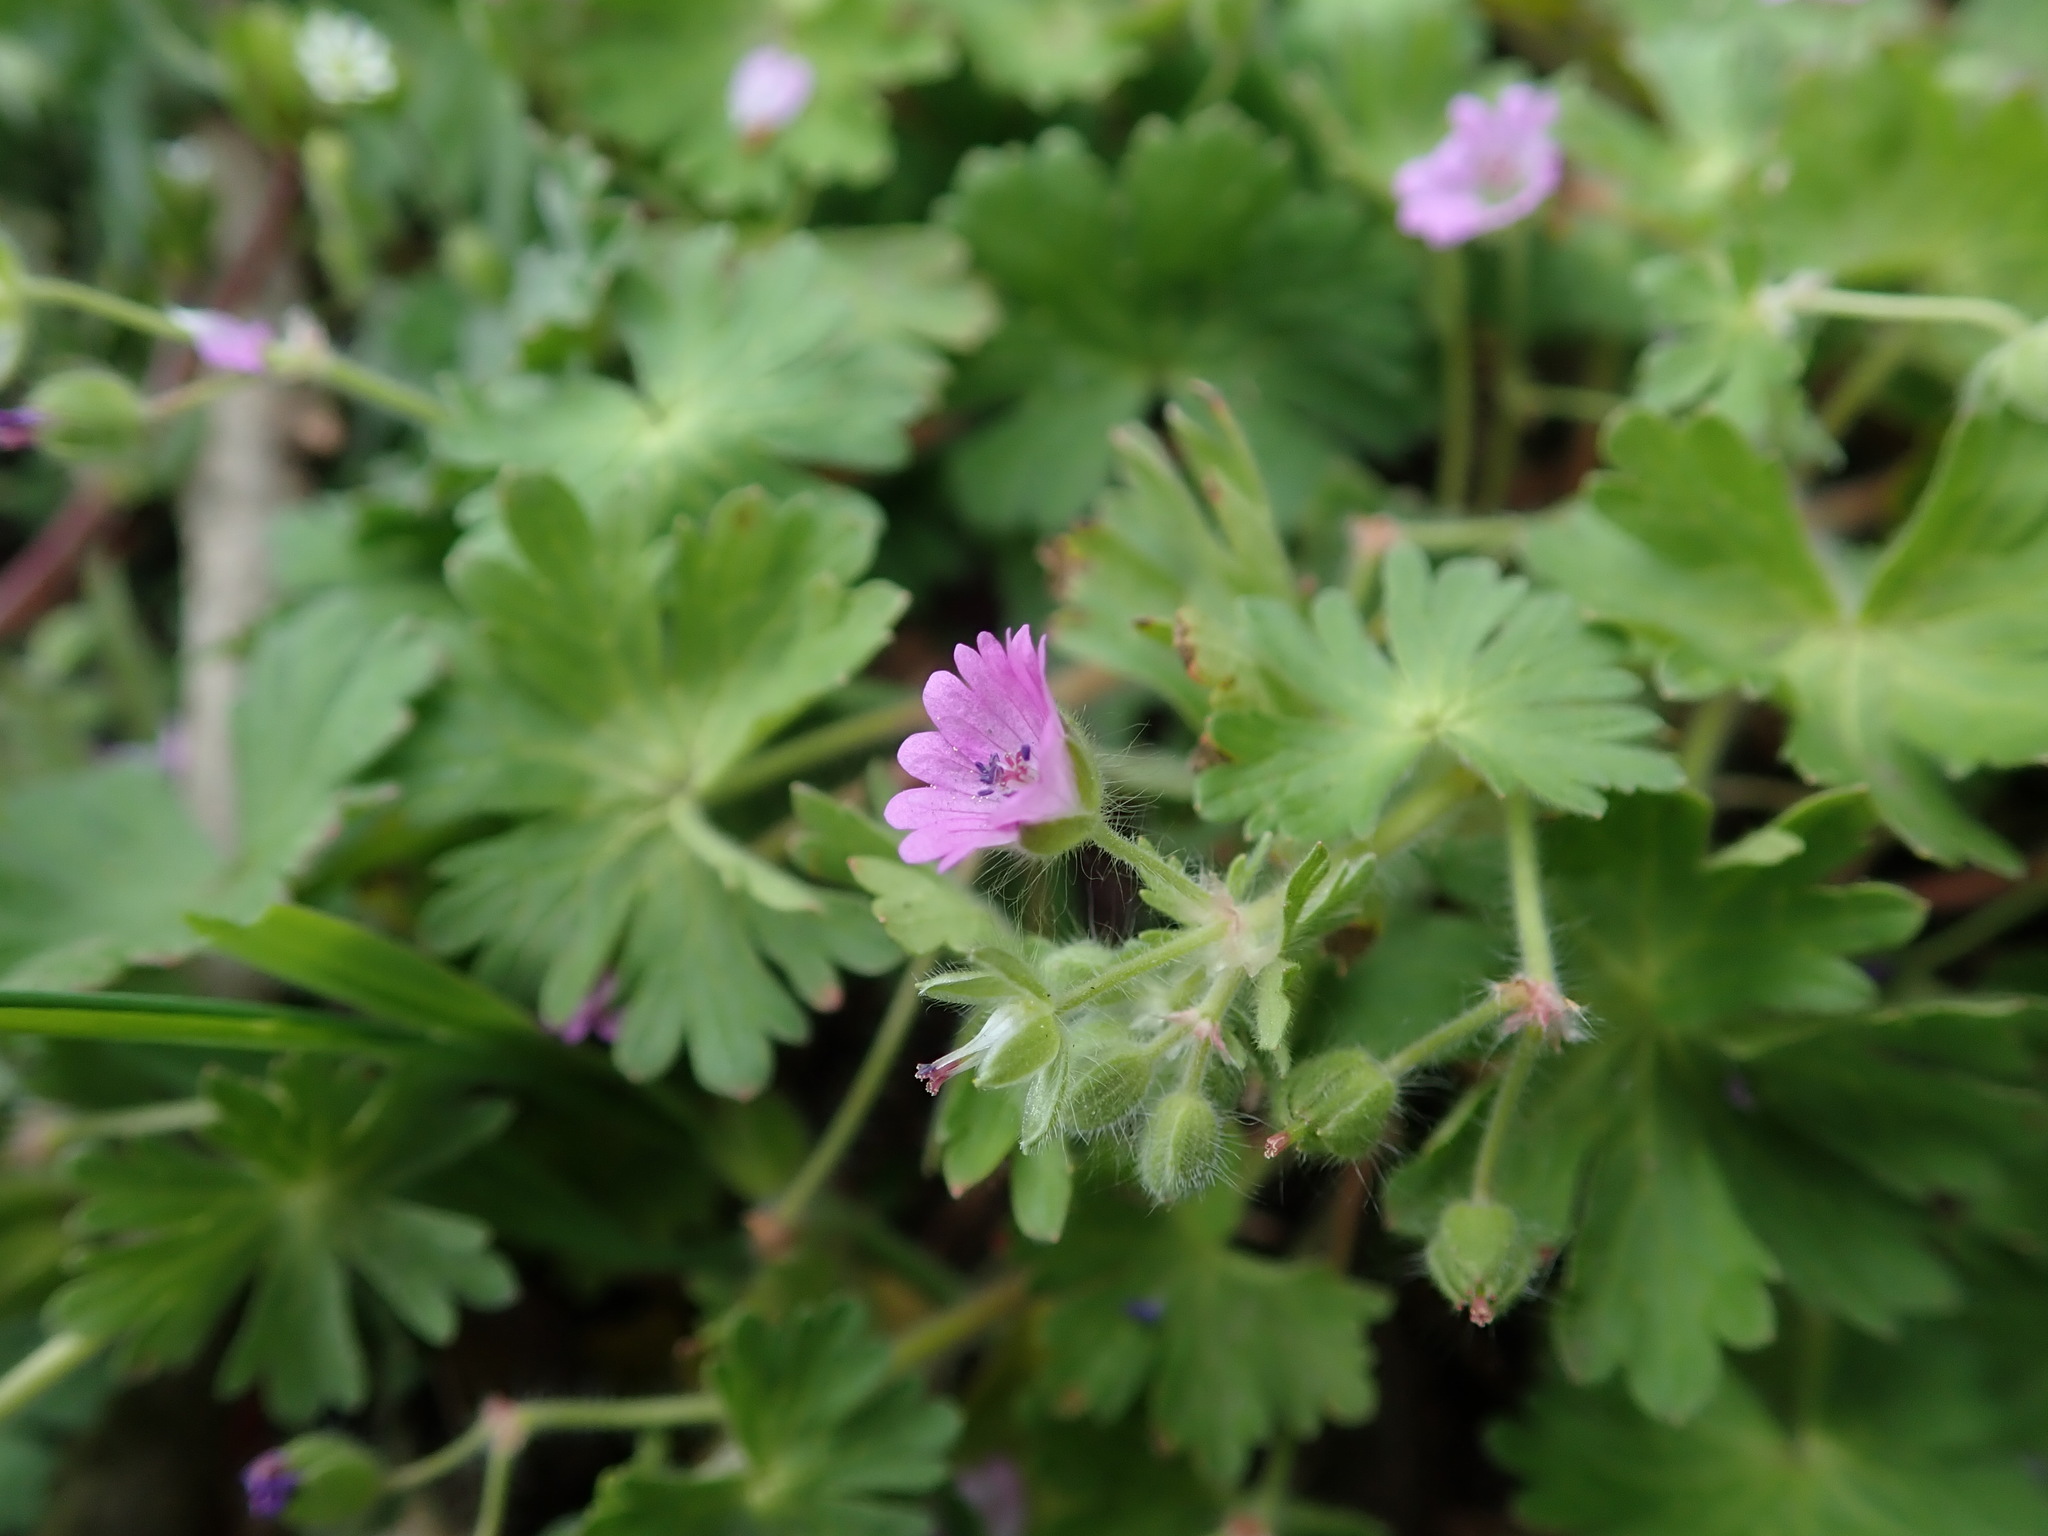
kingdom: Plantae
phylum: Tracheophyta
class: Magnoliopsida
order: Geraniales
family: Geraniaceae
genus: Geranium
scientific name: Geranium molle
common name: Dove's-foot crane's-bill
